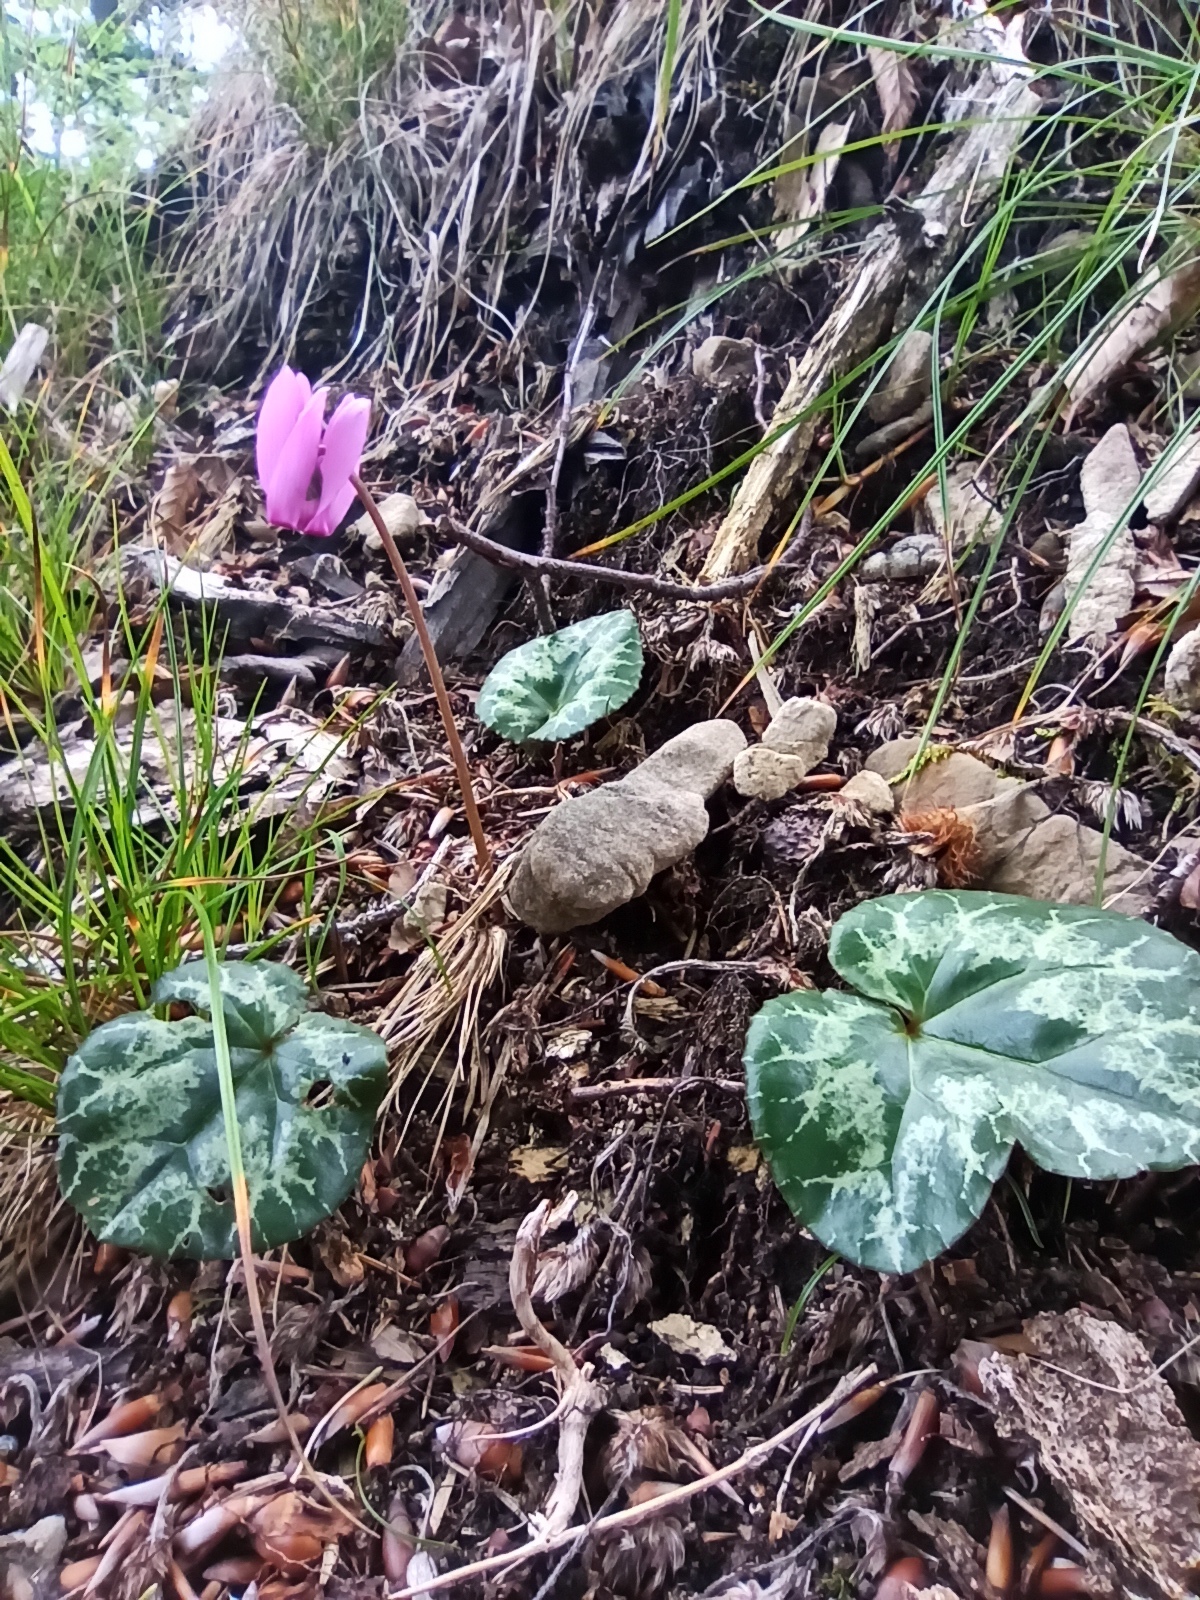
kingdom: Plantae
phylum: Tracheophyta
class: Magnoliopsida
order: Ericales
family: Primulaceae
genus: Cyclamen
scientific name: Cyclamen purpurascens
